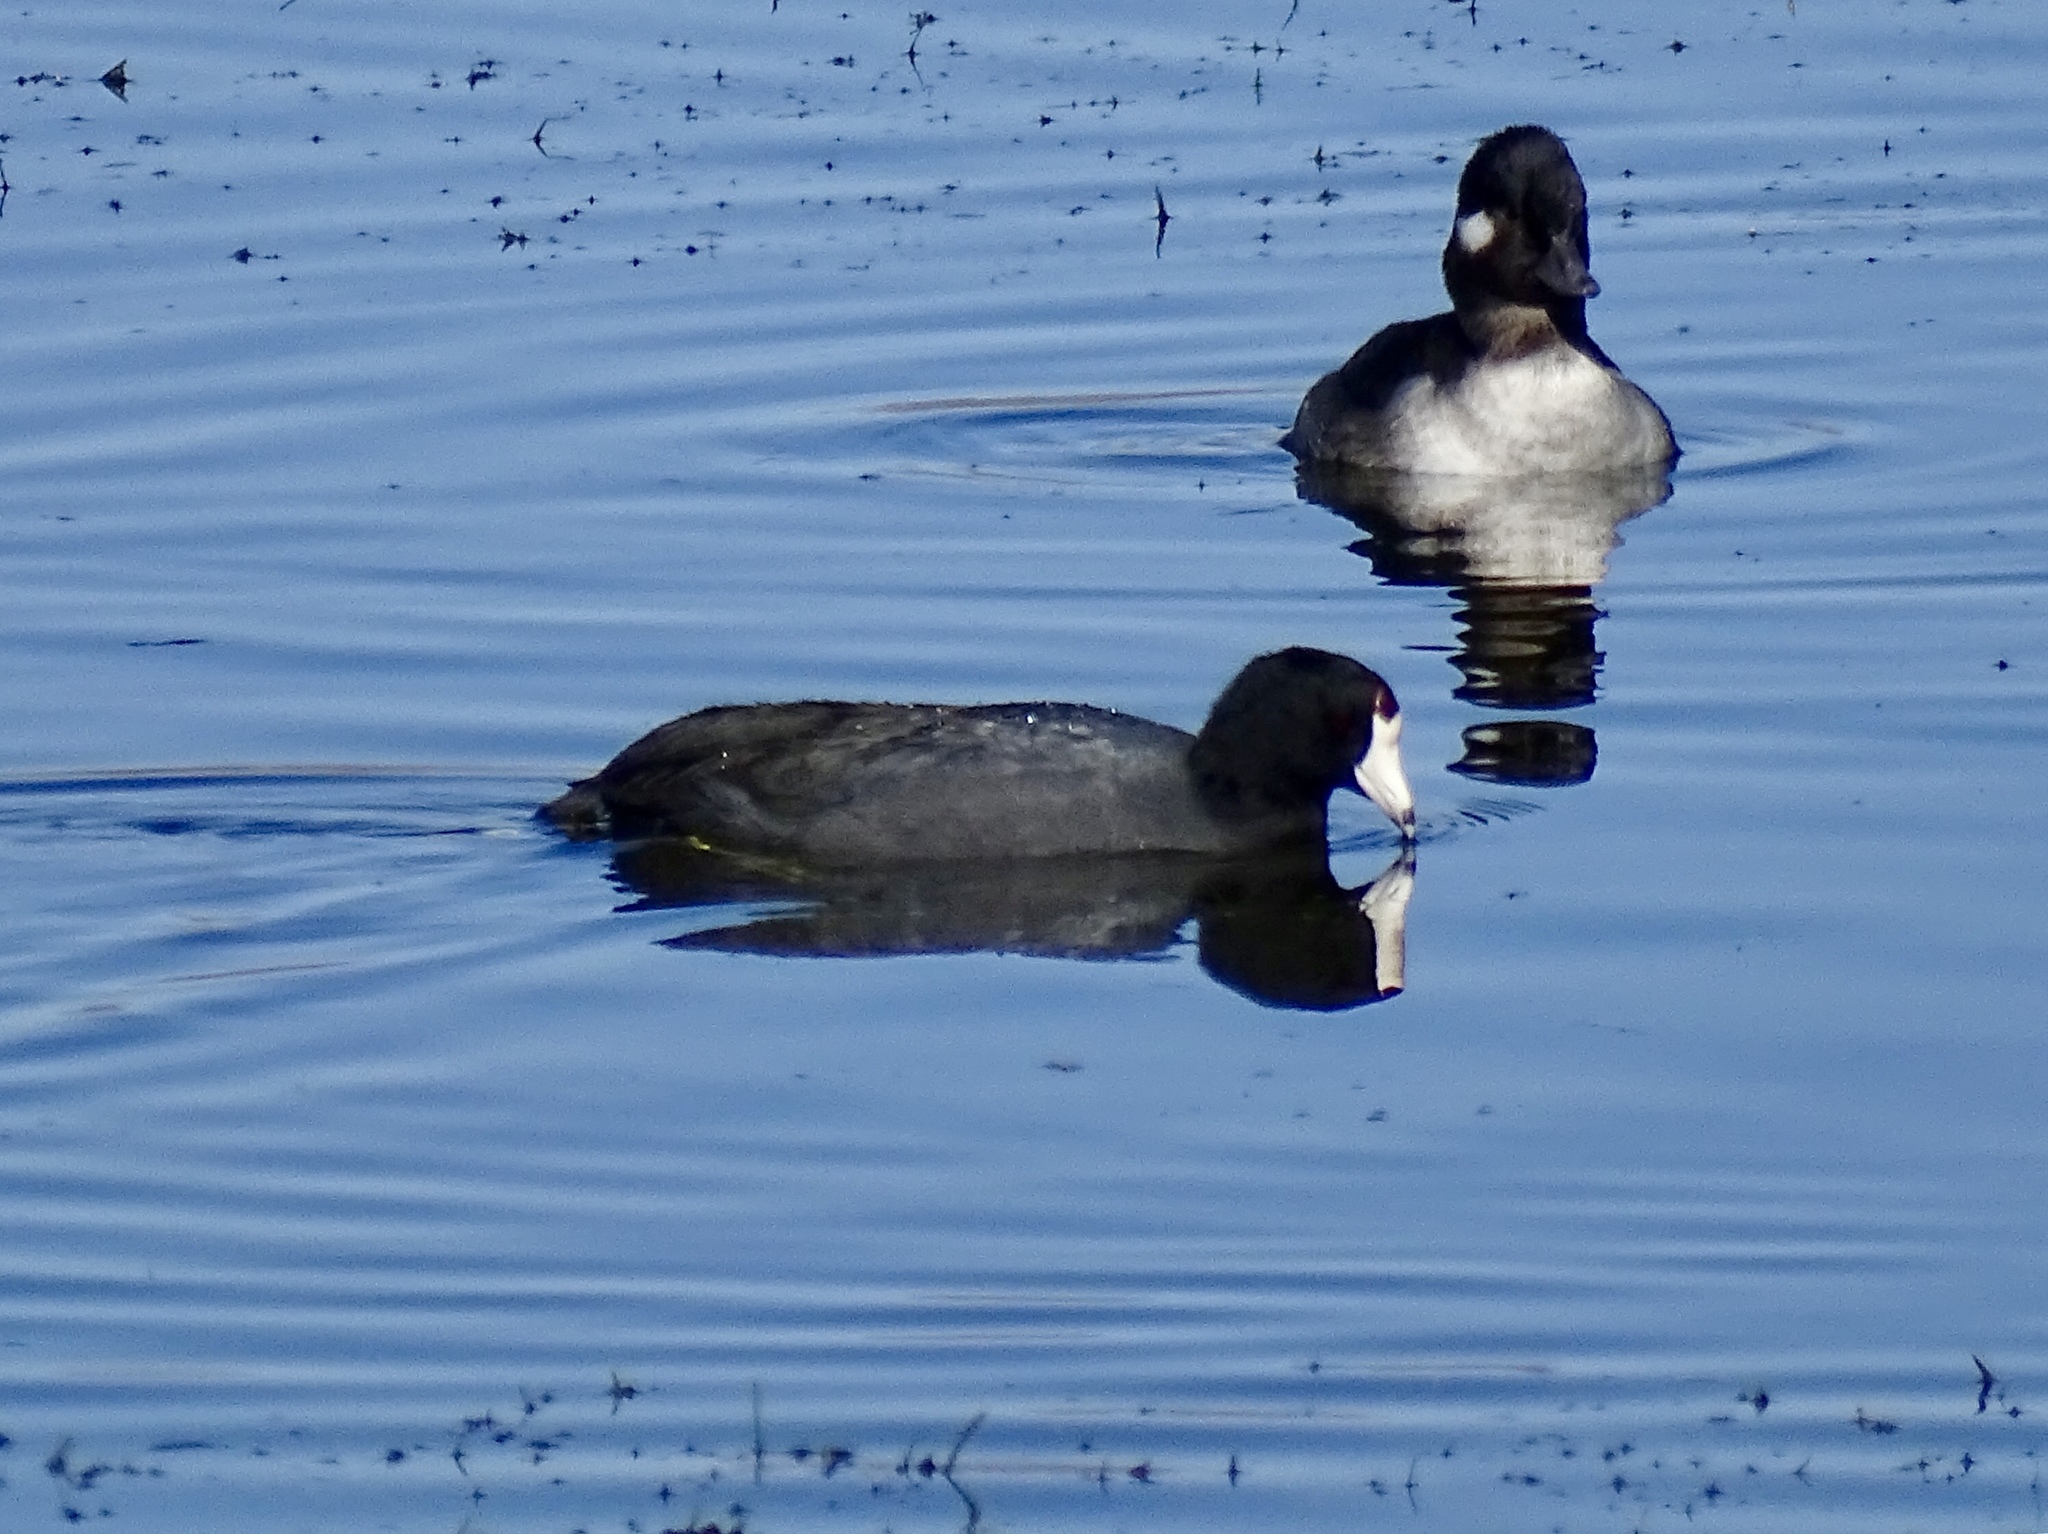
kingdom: Animalia
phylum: Chordata
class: Aves
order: Gruiformes
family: Rallidae
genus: Fulica
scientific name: Fulica americana
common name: American coot
